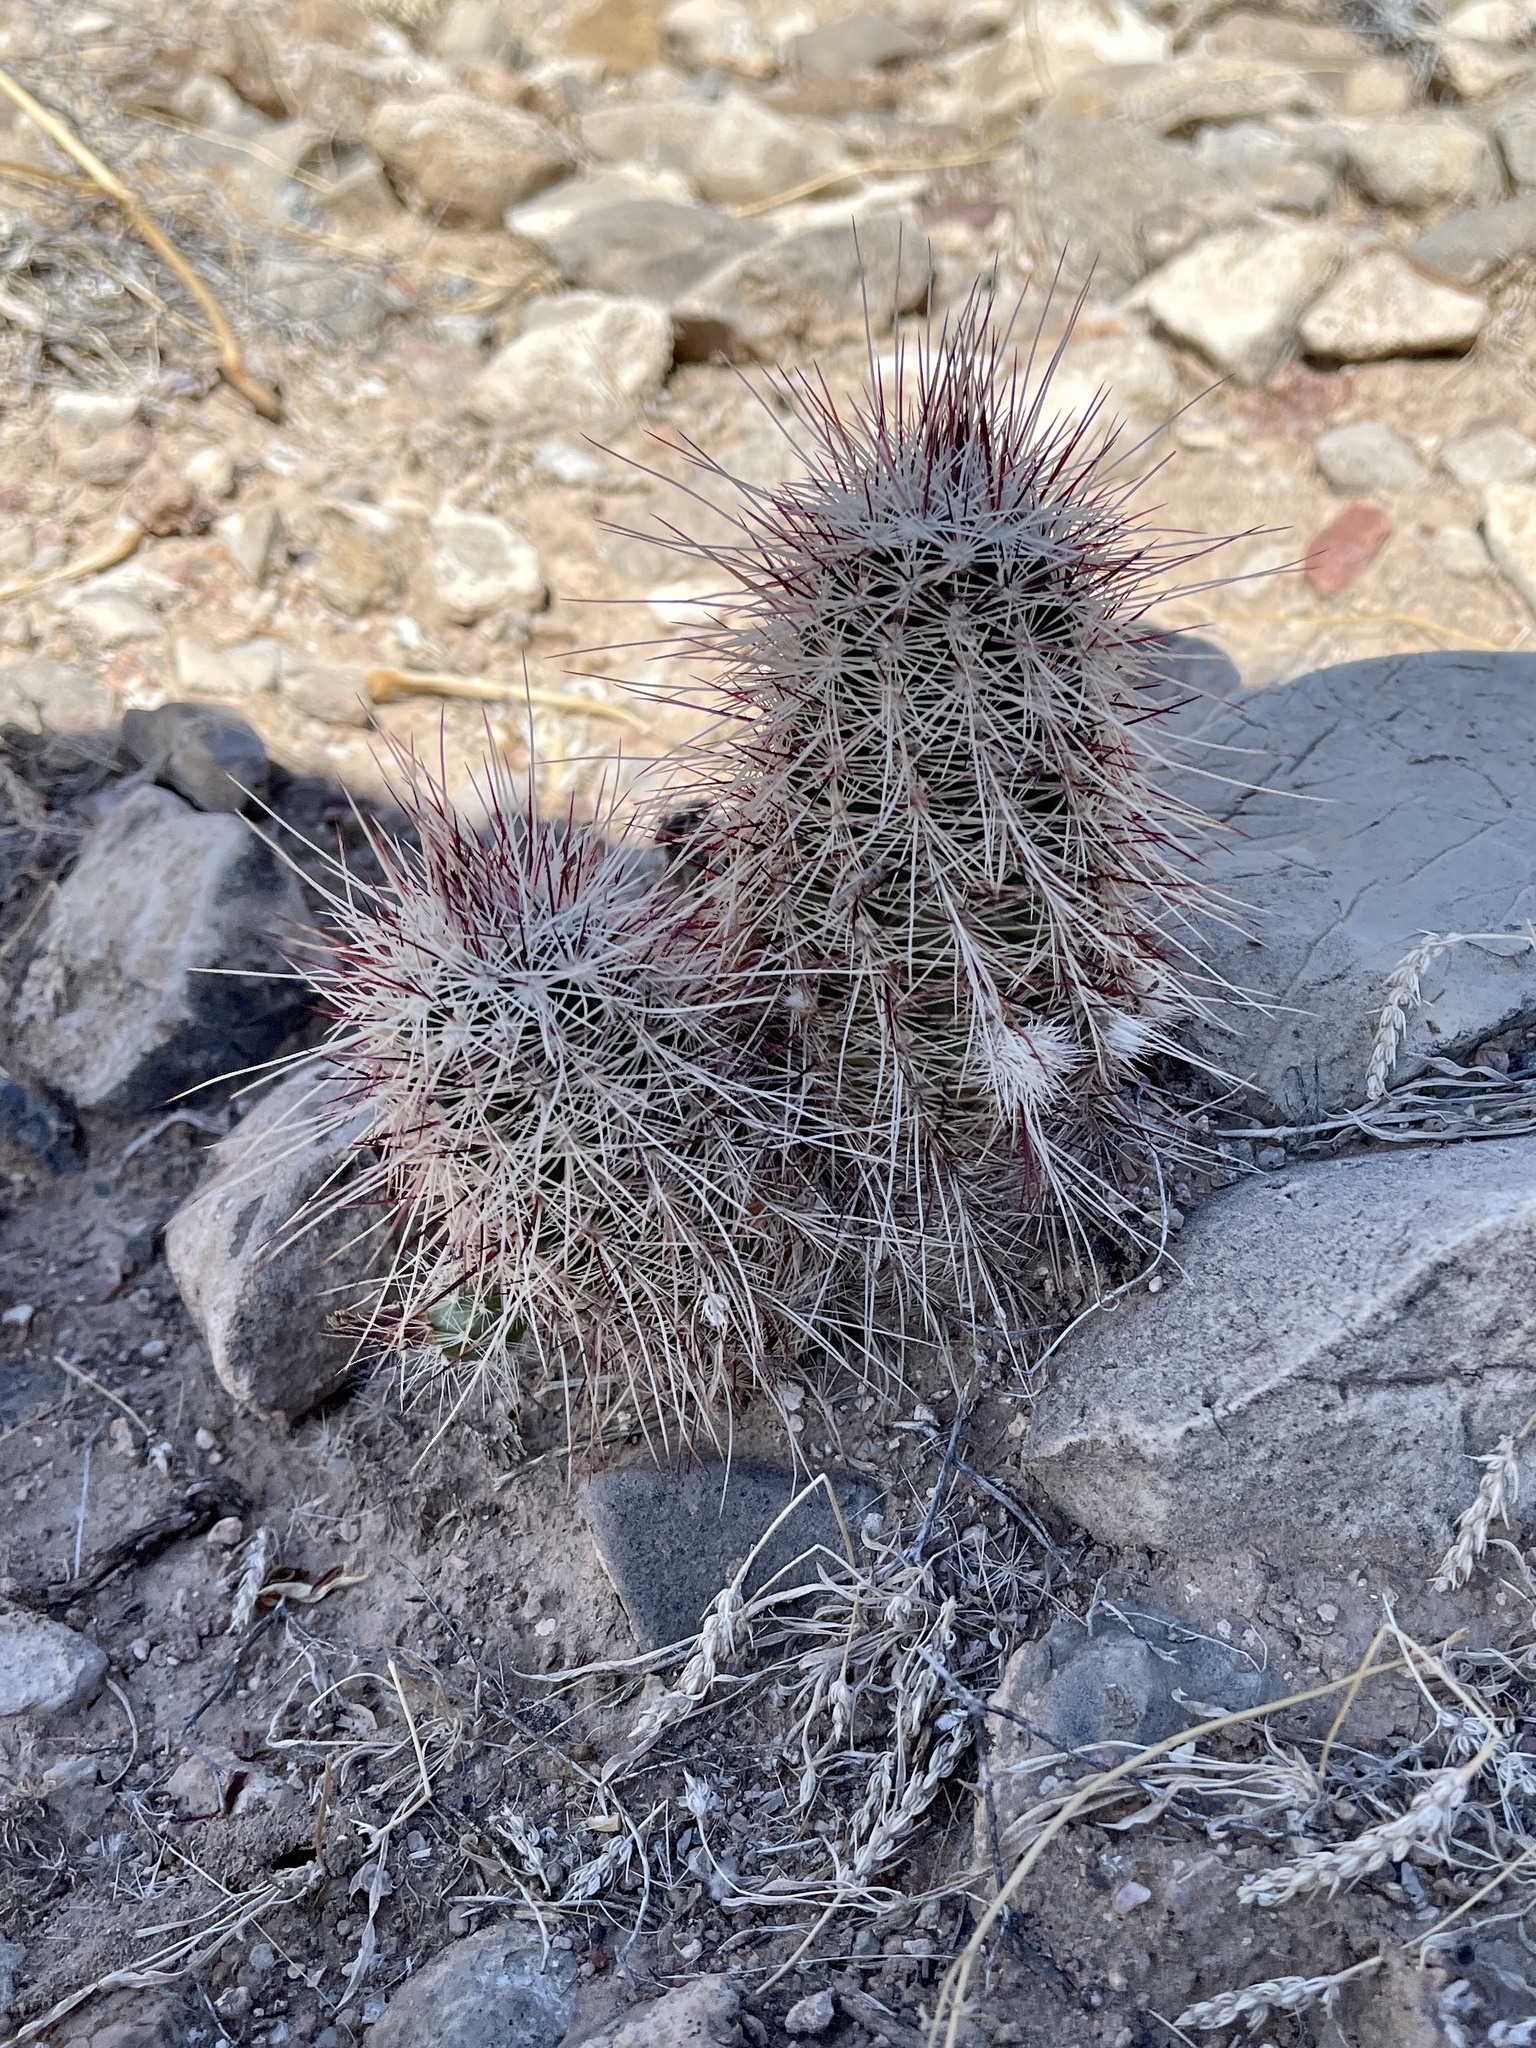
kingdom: Plantae
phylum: Tracheophyta
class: Magnoliopsida
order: Caryophyllales
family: Cactaceae
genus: Echinocereus
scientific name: Echinocereus viridiflorus
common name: Nylon hedgehog cactus
